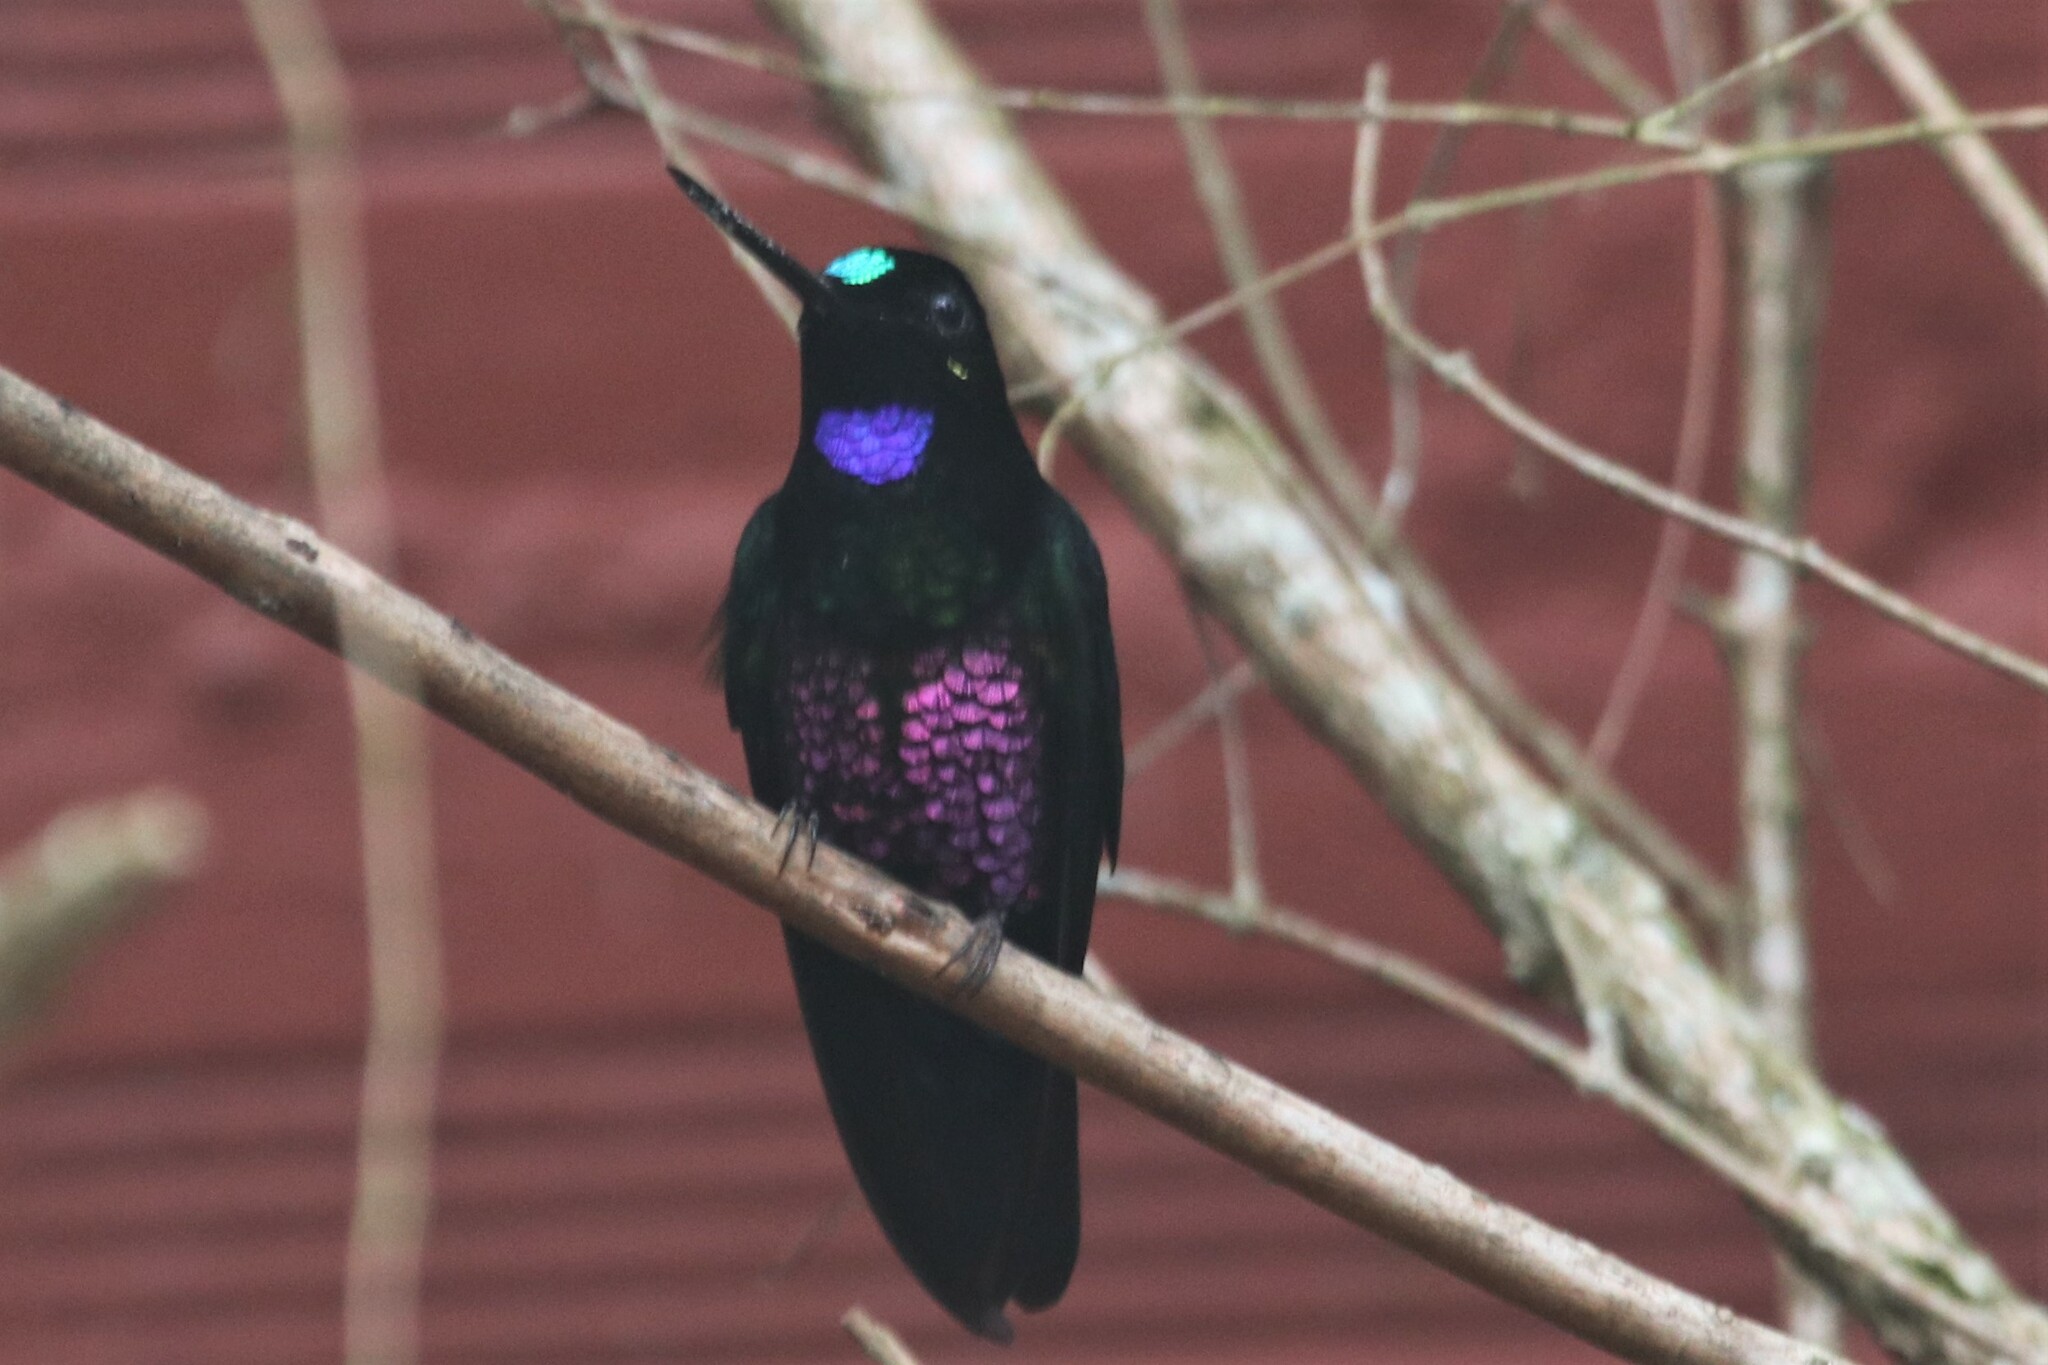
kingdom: Animalia
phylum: Chordata
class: Aves
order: Apodiformes
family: Trochilidae
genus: Coeligena
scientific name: Coeligena helianthea
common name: Blue-throated starfrontlet
